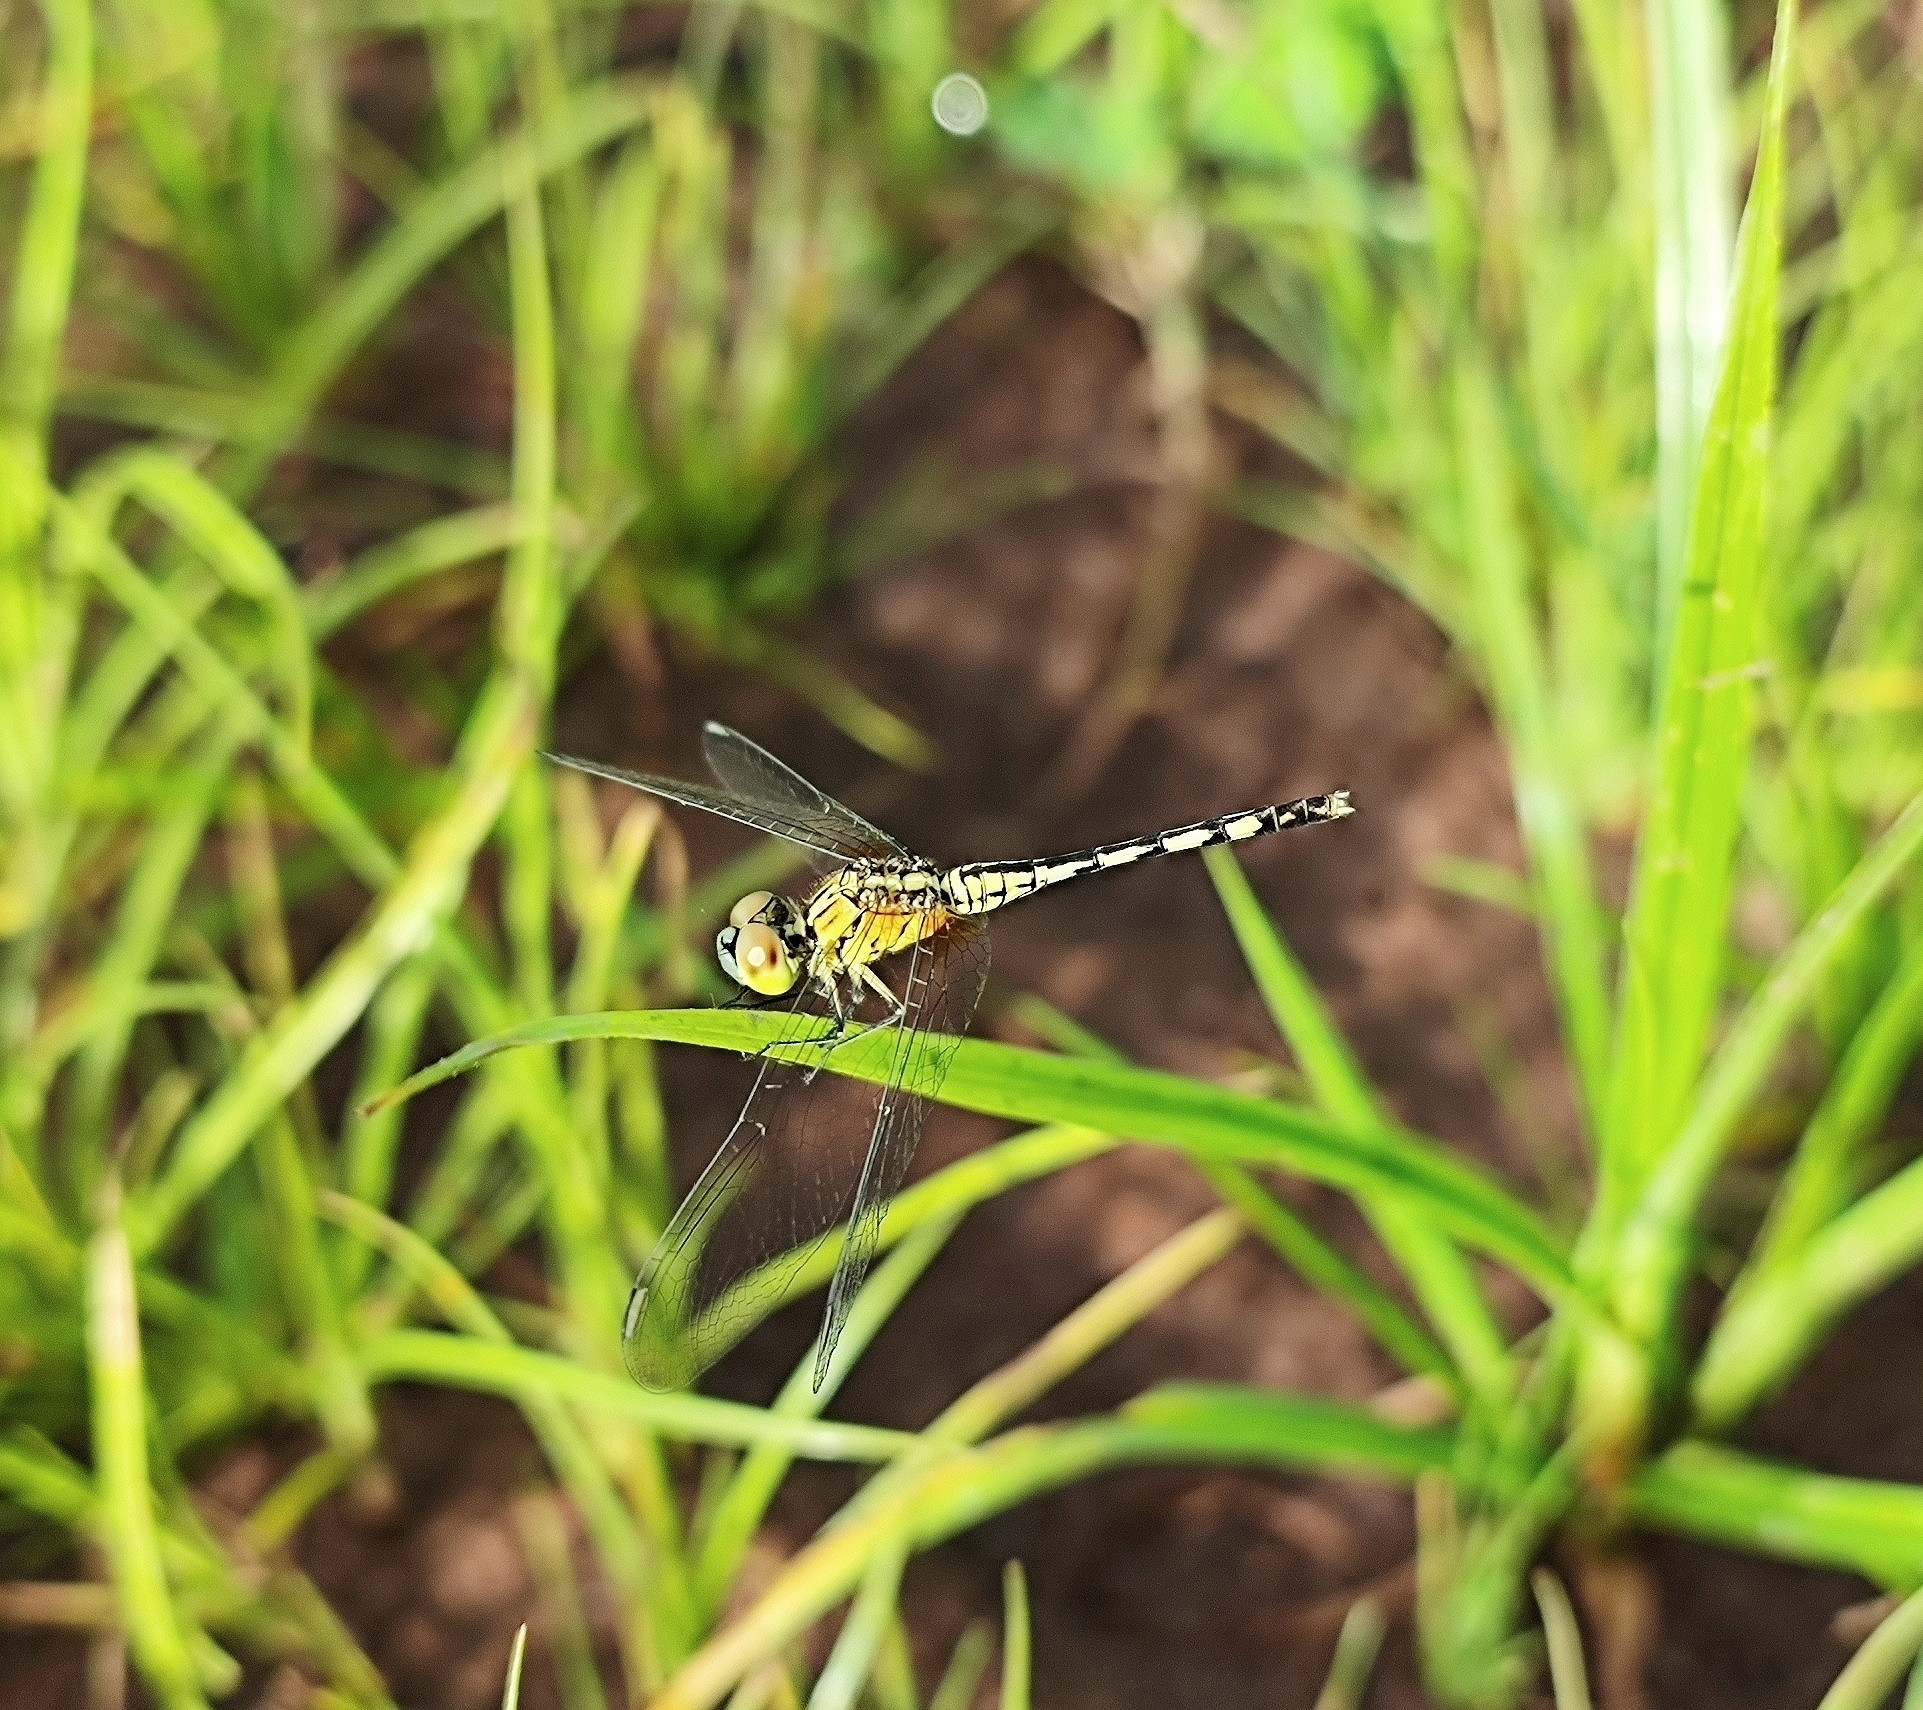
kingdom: Animalia
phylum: Arthropoda
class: Insecta
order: Odonata
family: Libellulidae
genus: Diplacodes
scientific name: Diplacodes trivialis
